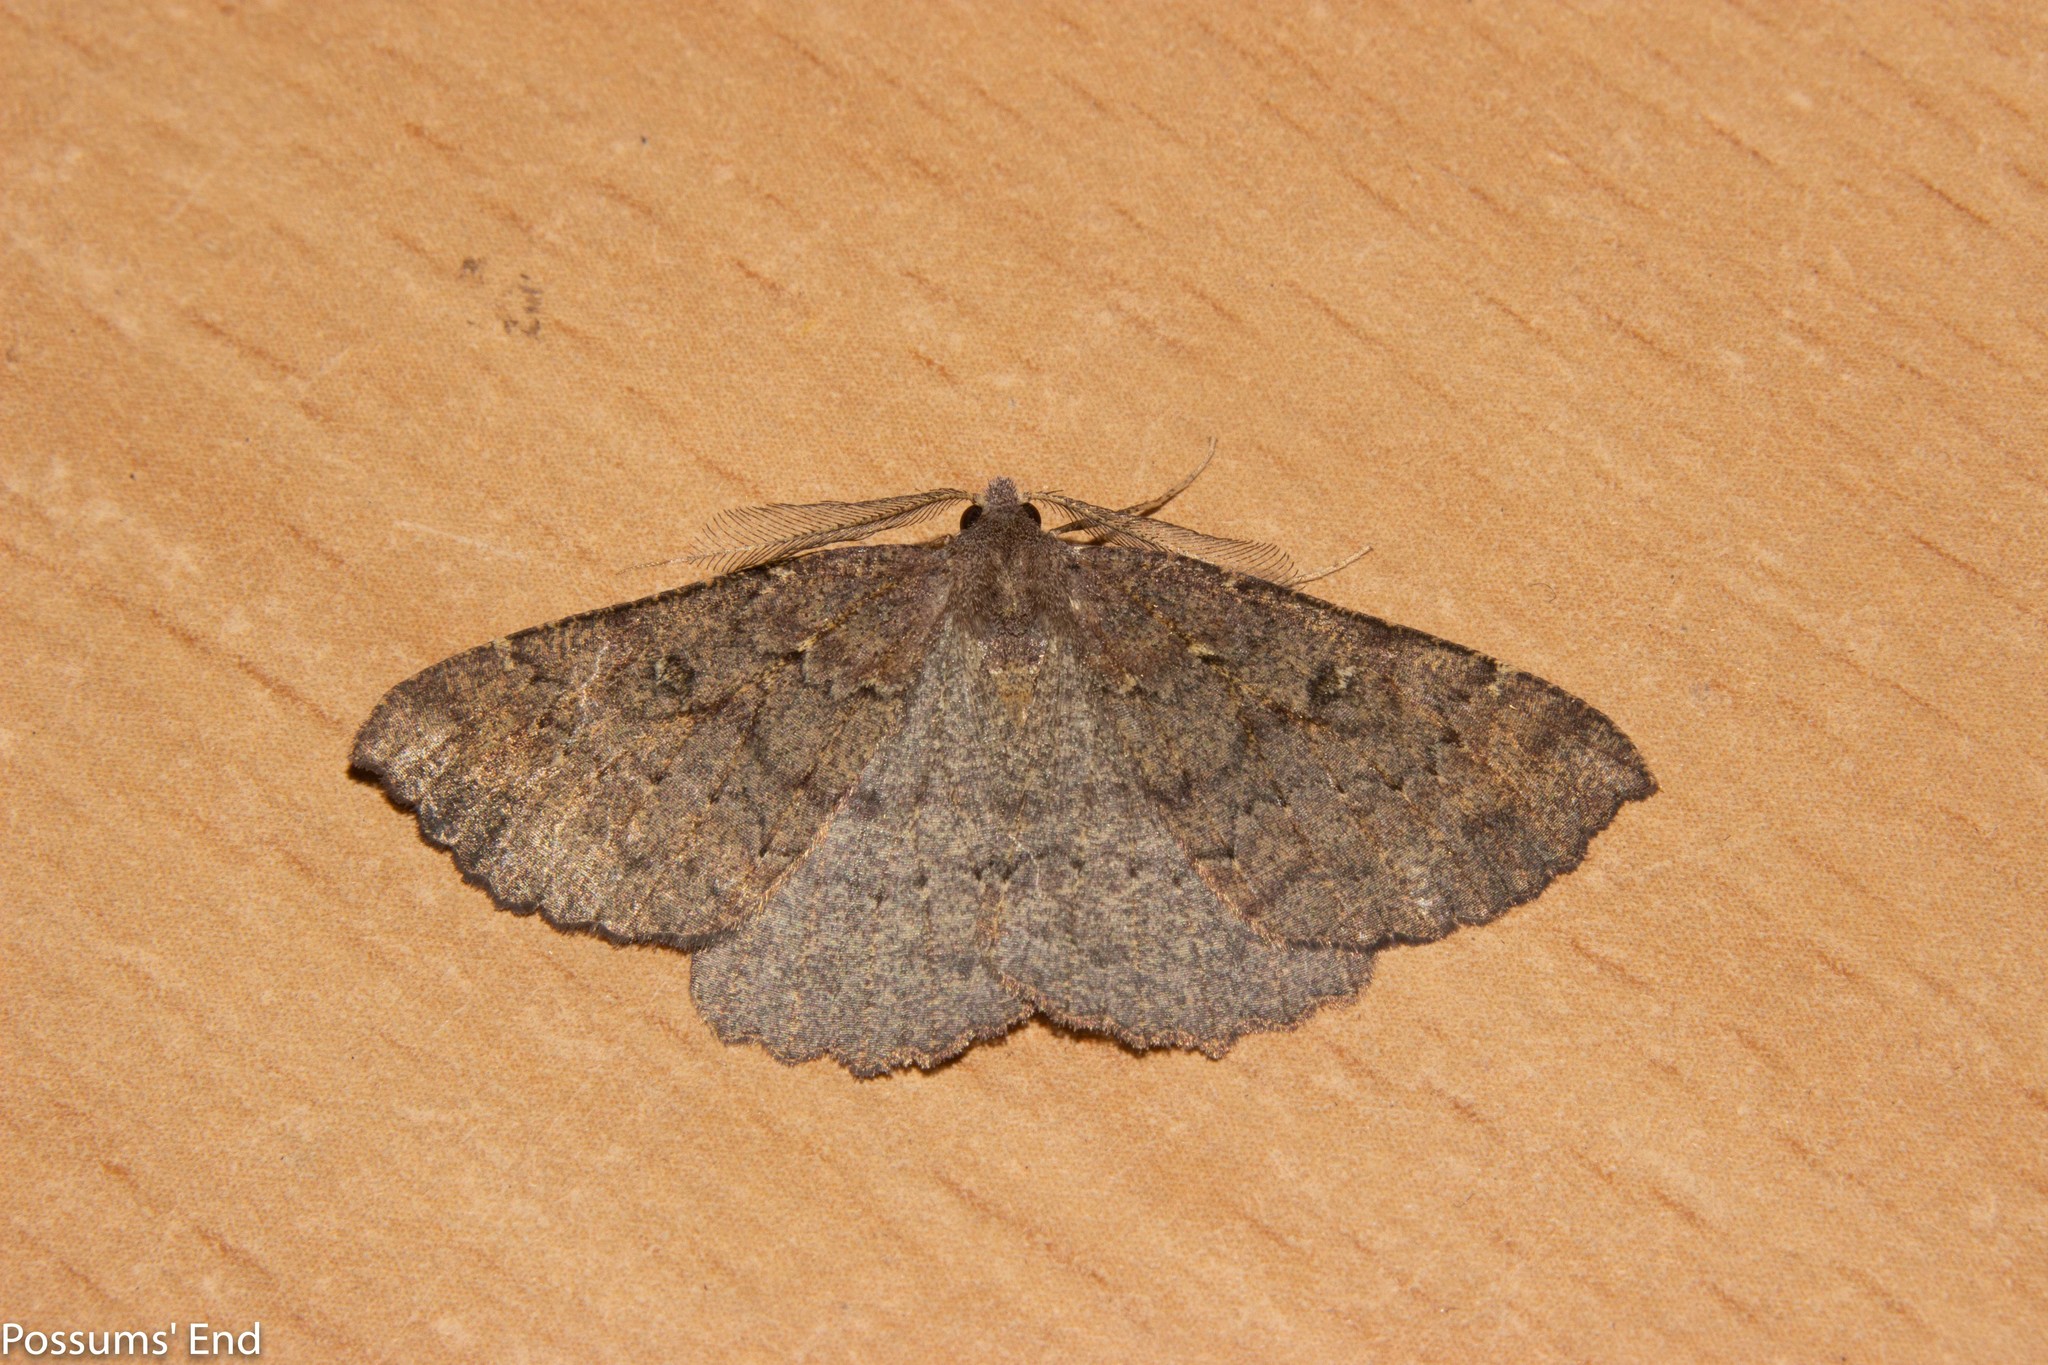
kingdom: Animalia
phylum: Arthropoda
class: Insecta
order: Lepidoptera
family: Geometridae
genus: Cleora
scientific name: Cleora scriptaria
